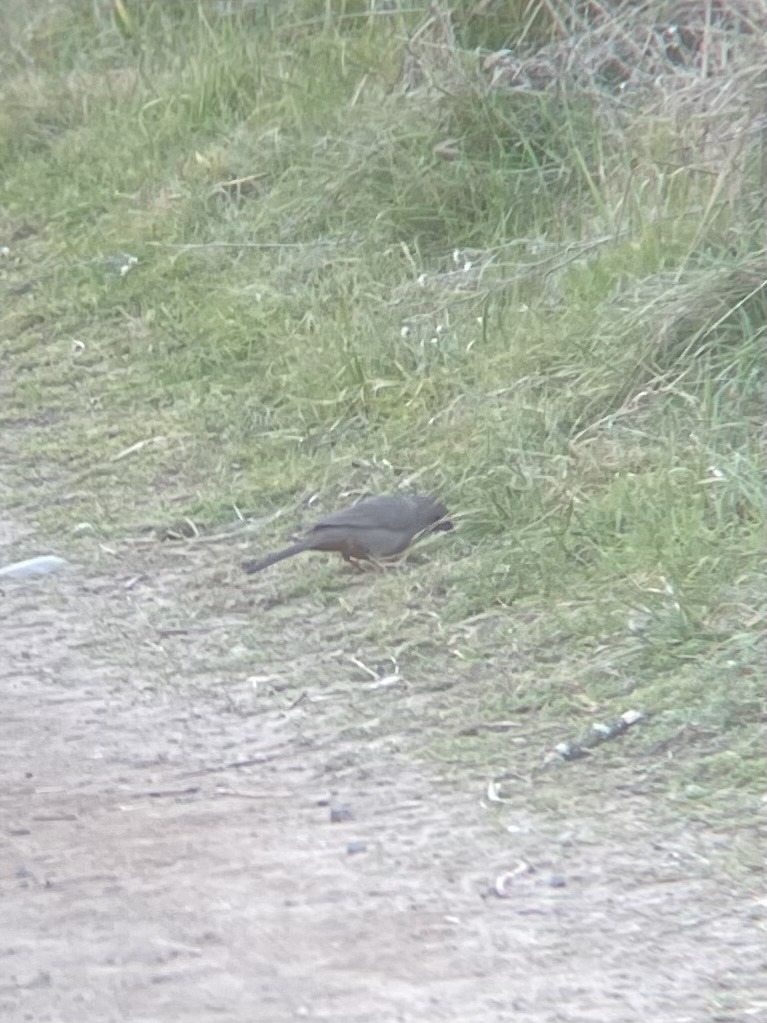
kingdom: Animalia
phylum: Chordata
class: Aves
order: Passeriformes
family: Passerellidae
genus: Melozone
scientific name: Melozone crissalis
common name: California towhee
